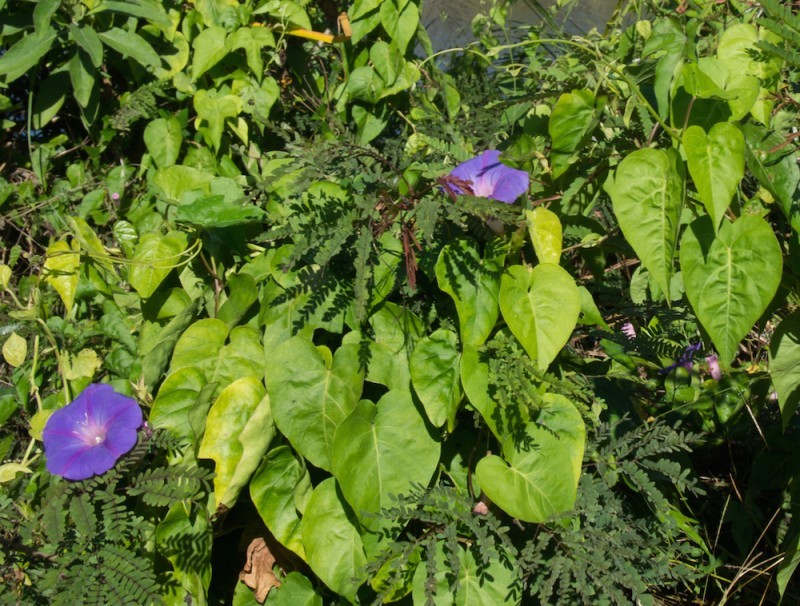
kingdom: Plantae
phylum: Tracheophyta
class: Magnoliopsida
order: Solanales
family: Convolvulaceae
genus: Ipomoea
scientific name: Ipomoea indica
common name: Blue dawnflower
